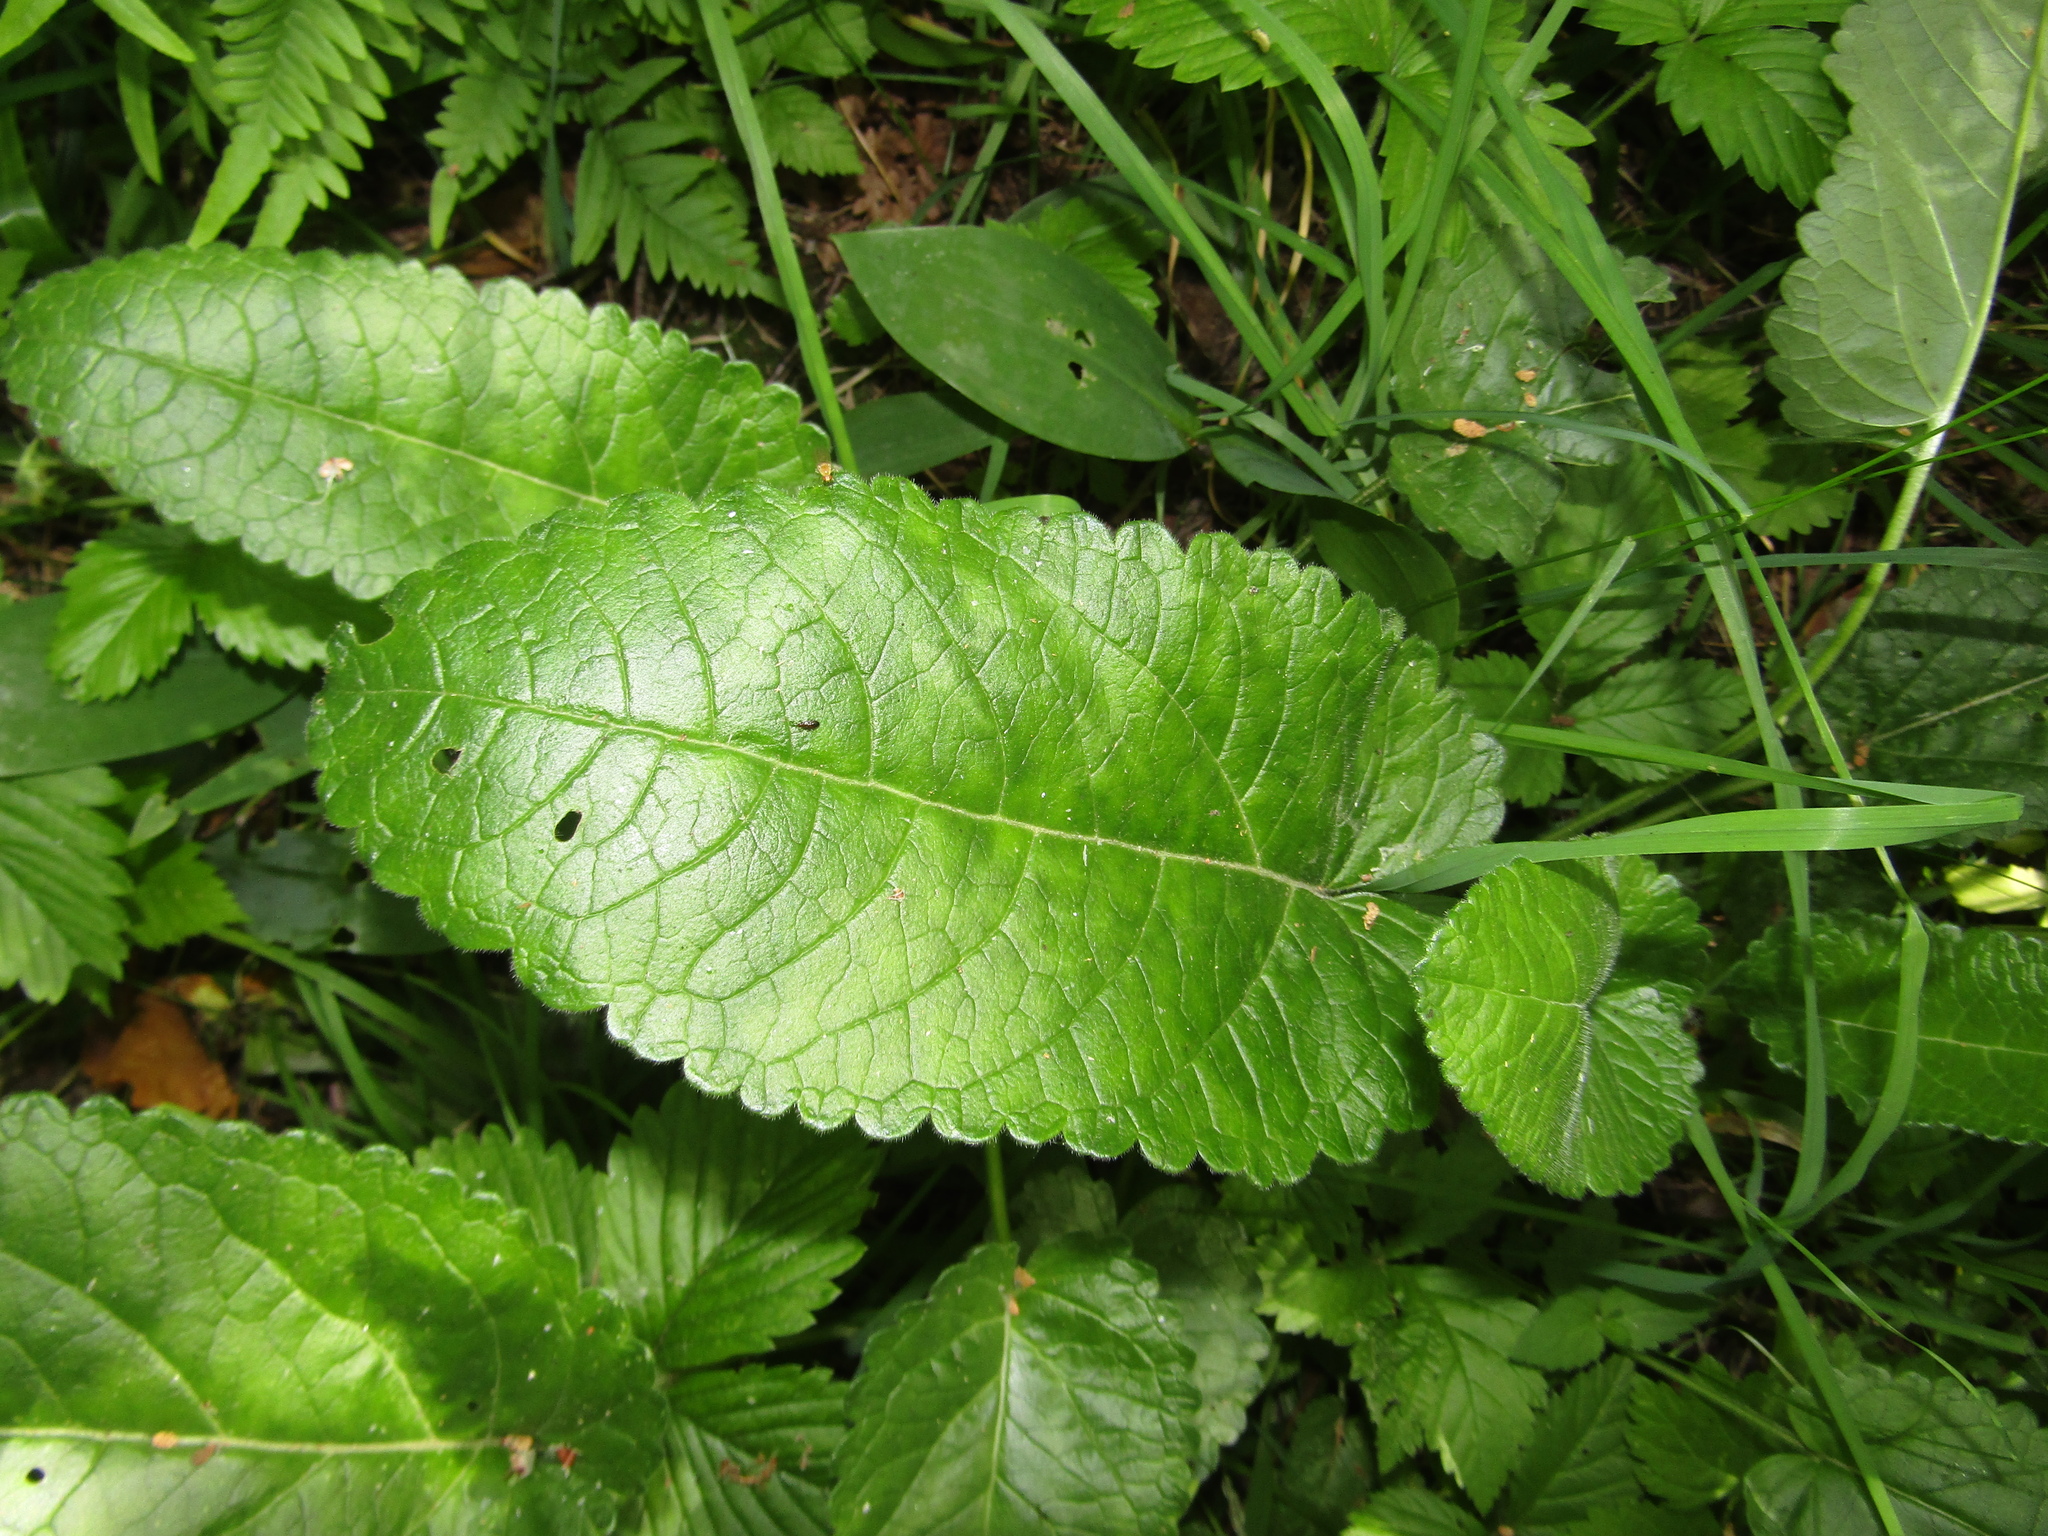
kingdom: Plantae
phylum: Tracheophyta
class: Magnoliopsida
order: Lamiales
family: Lamiaceae
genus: Betonica
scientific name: Betonica officinalis
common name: Bishop's-wort
